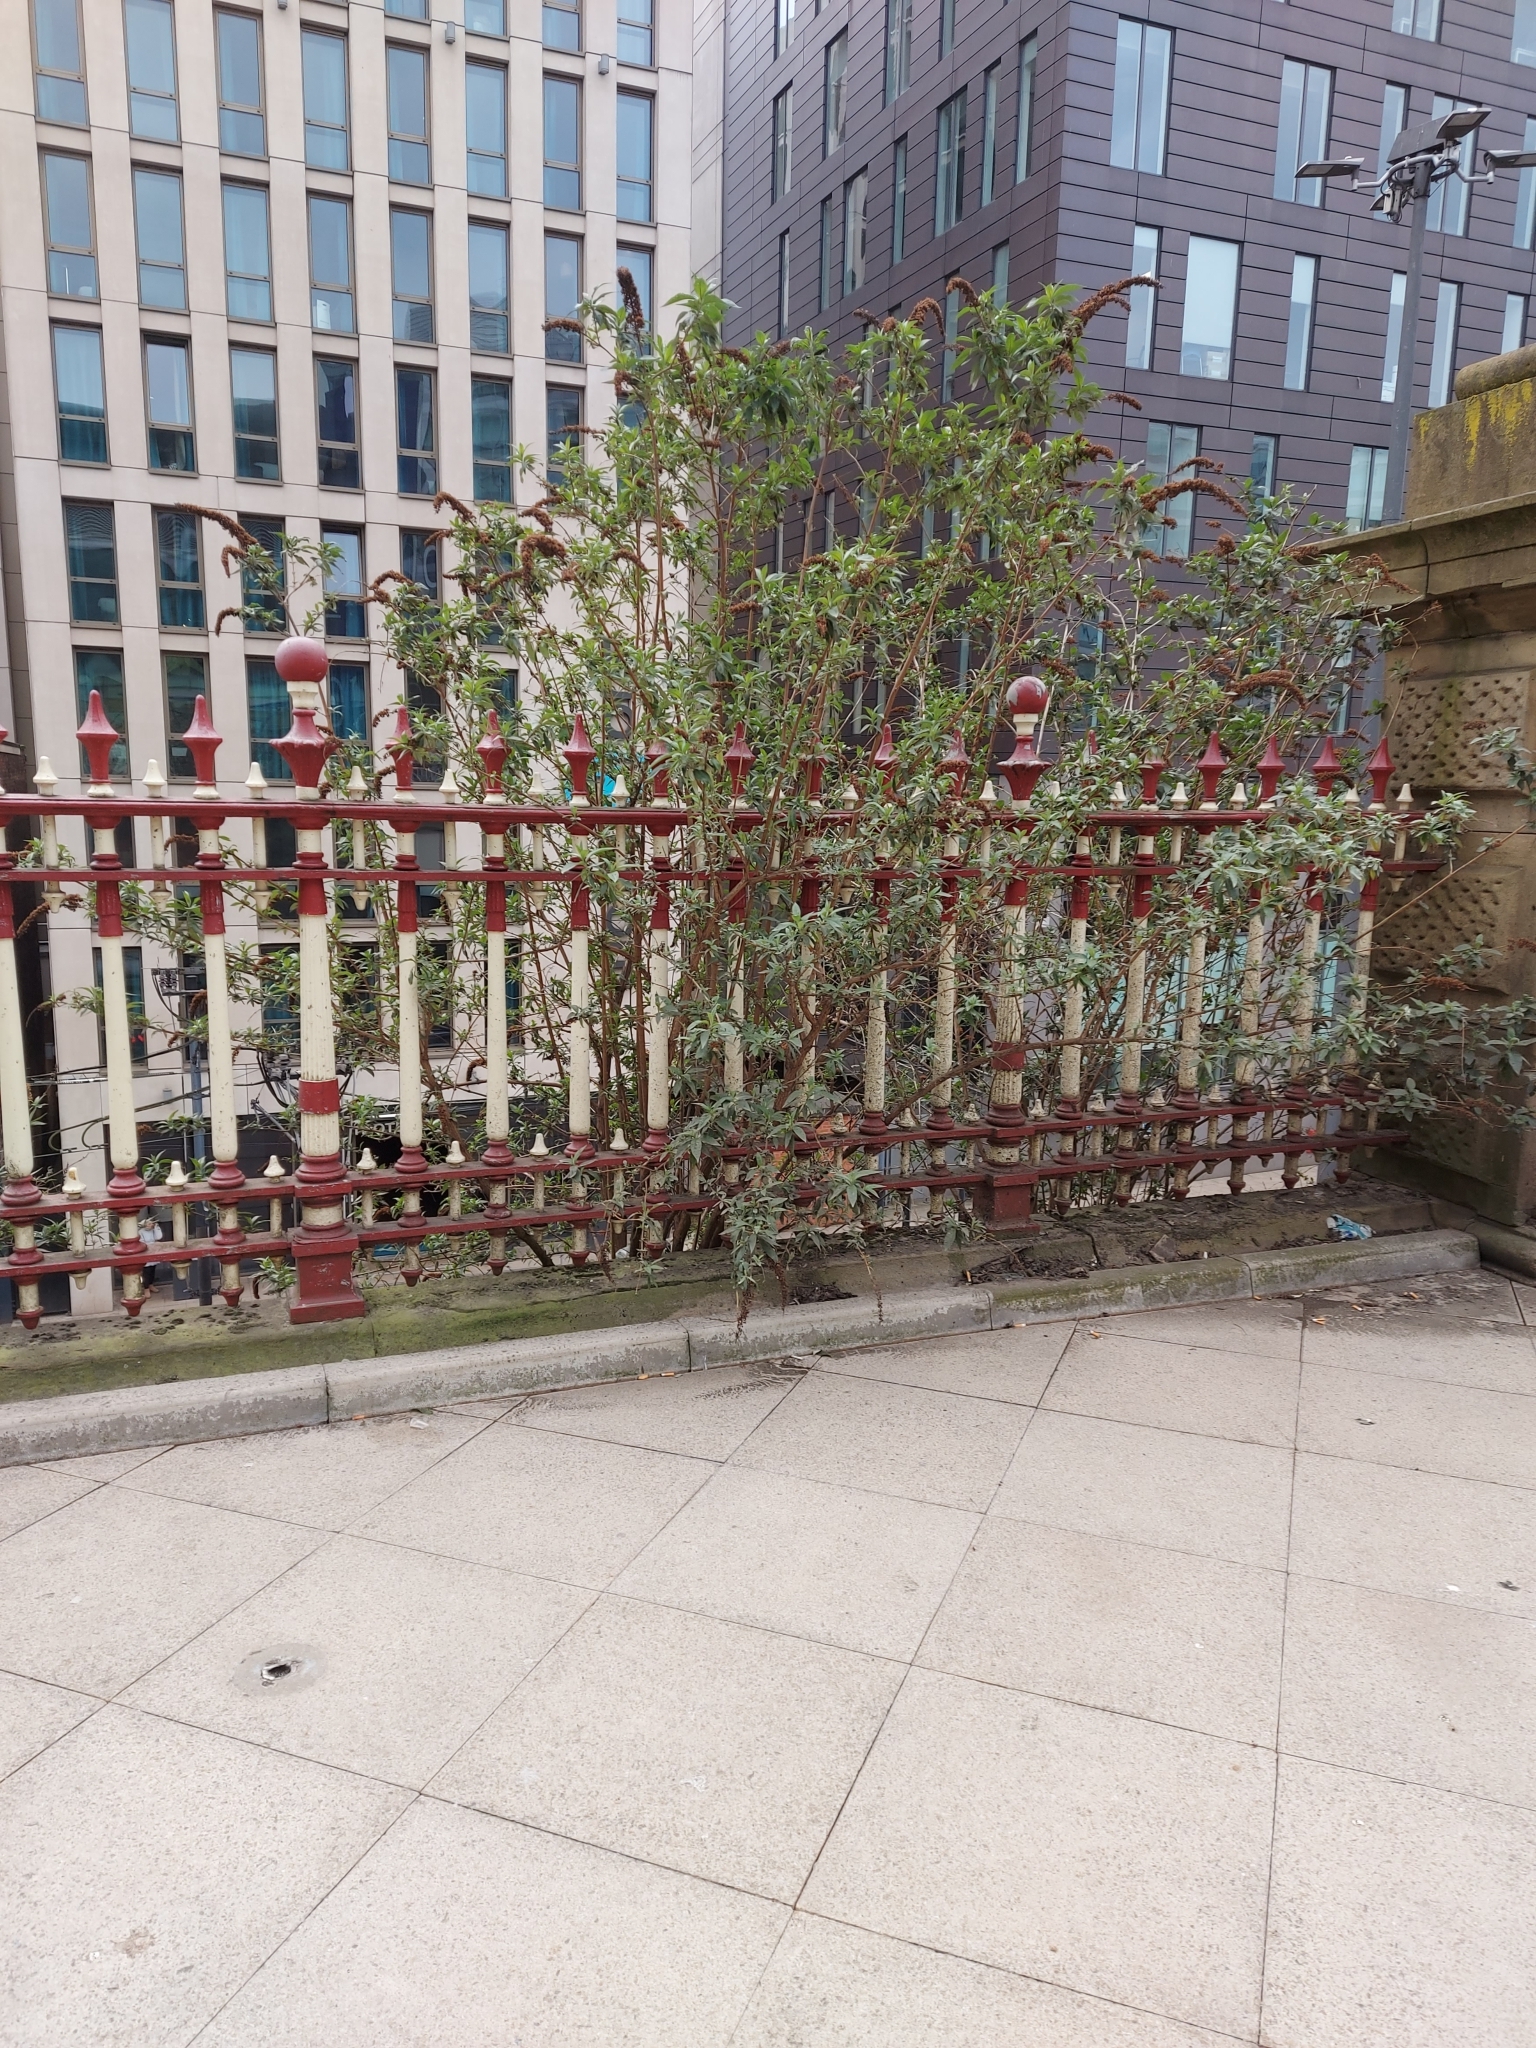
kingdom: Plantae
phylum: Tracheophyta
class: Magnoliopsida
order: Lamiales
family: Scrophulariaceae
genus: Buddleja
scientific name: Buddleja davidii
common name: Butterfly-bush
